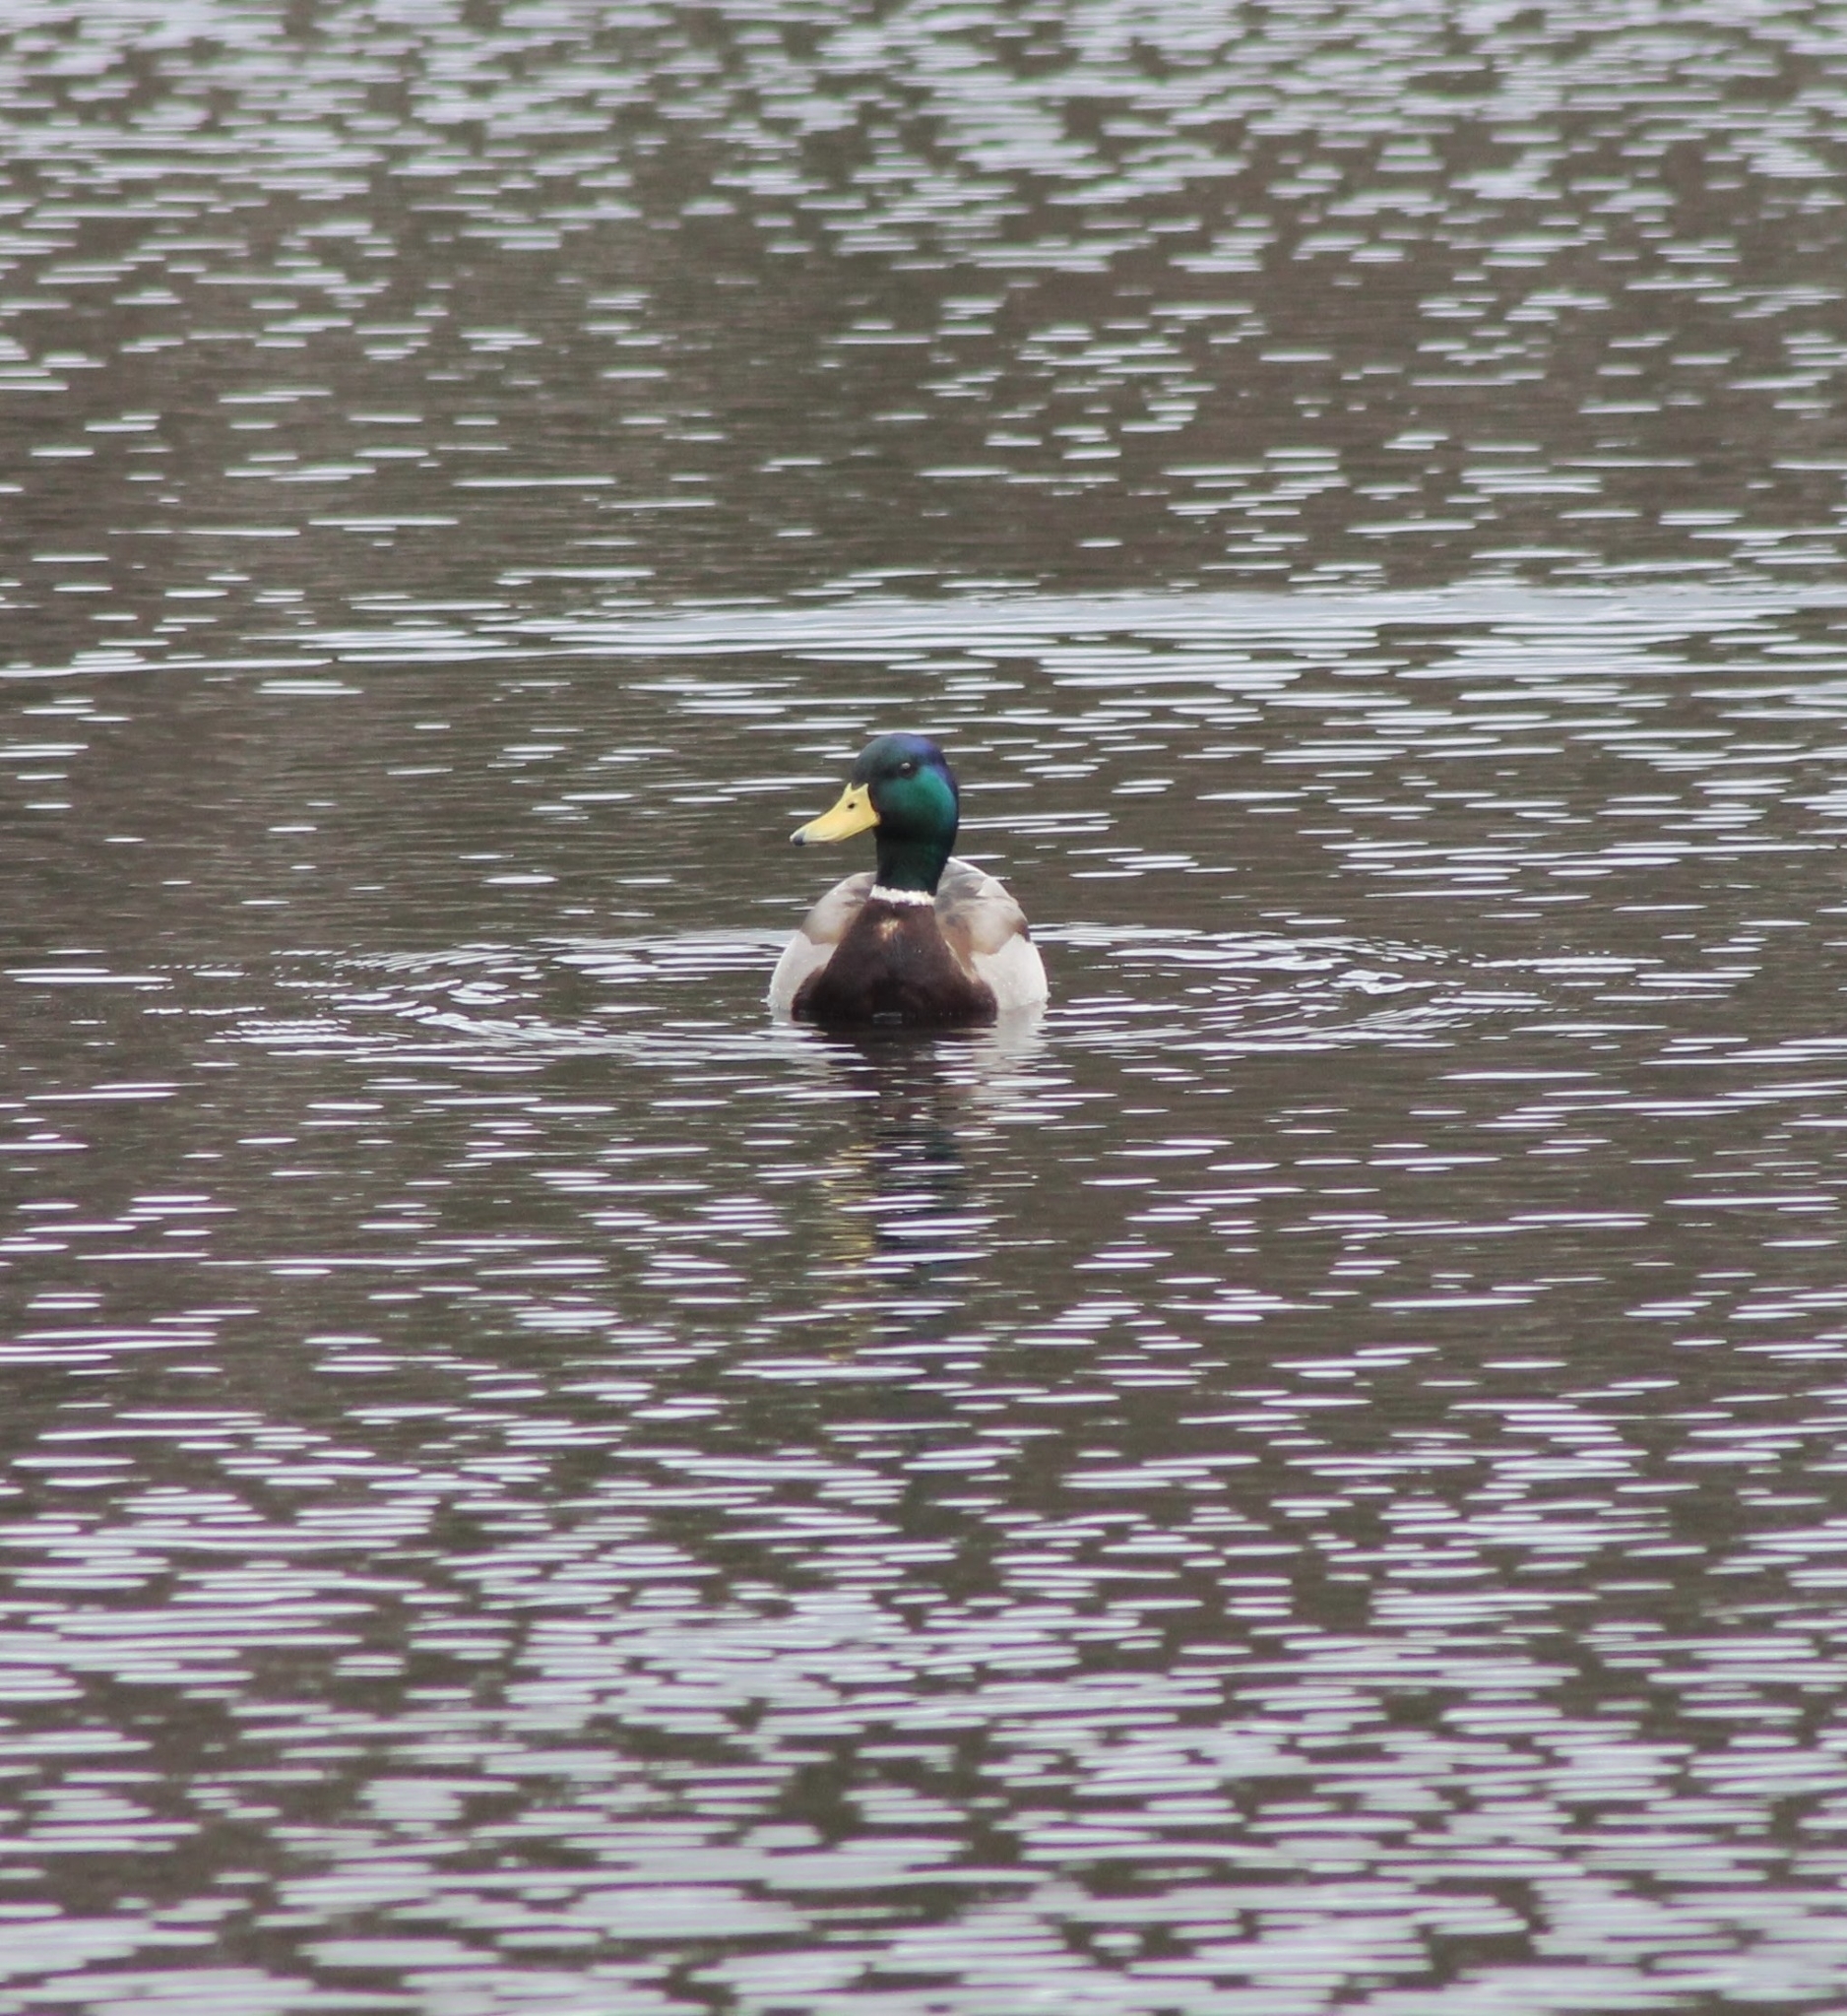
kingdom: Animalia
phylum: Chordata
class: Aves
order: Anseriformes
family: Anatidae
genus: Anas
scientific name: Anas platyrhynchos
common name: Mallard
